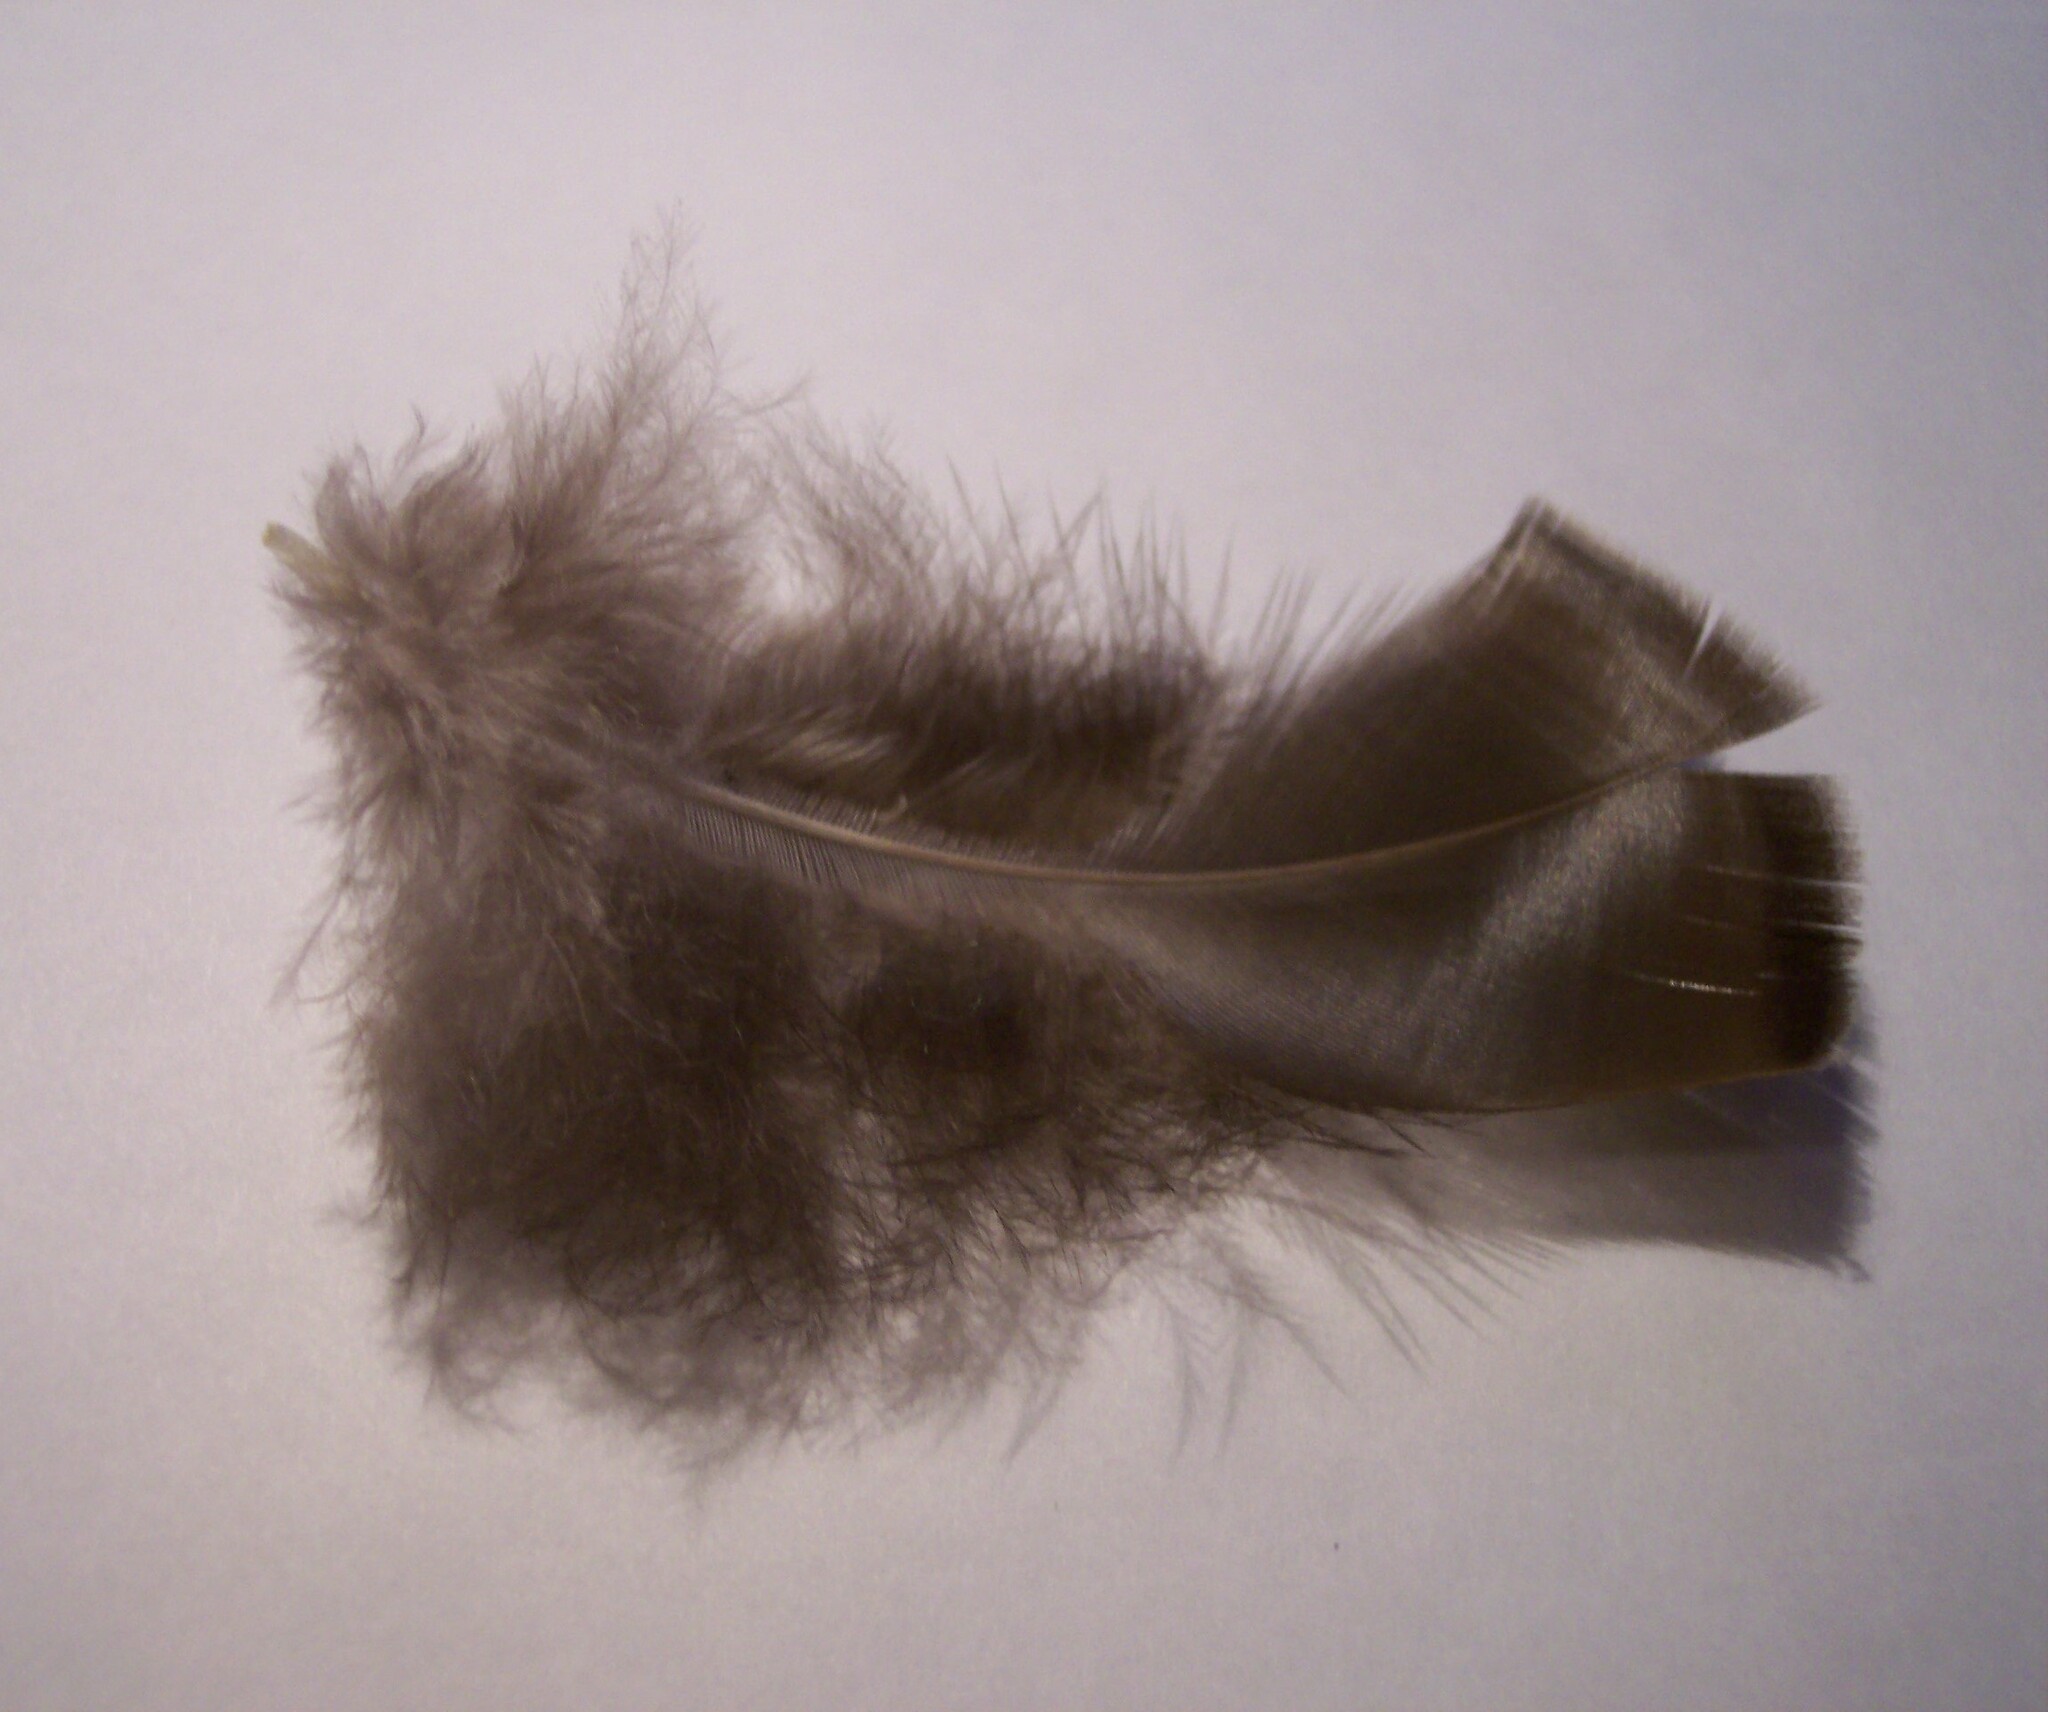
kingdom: Animalia
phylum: Chordata
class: Aves
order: Galliformes
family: Phasianidae
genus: Meleagris
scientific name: Meleagris gallopavo
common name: Wild turkey
